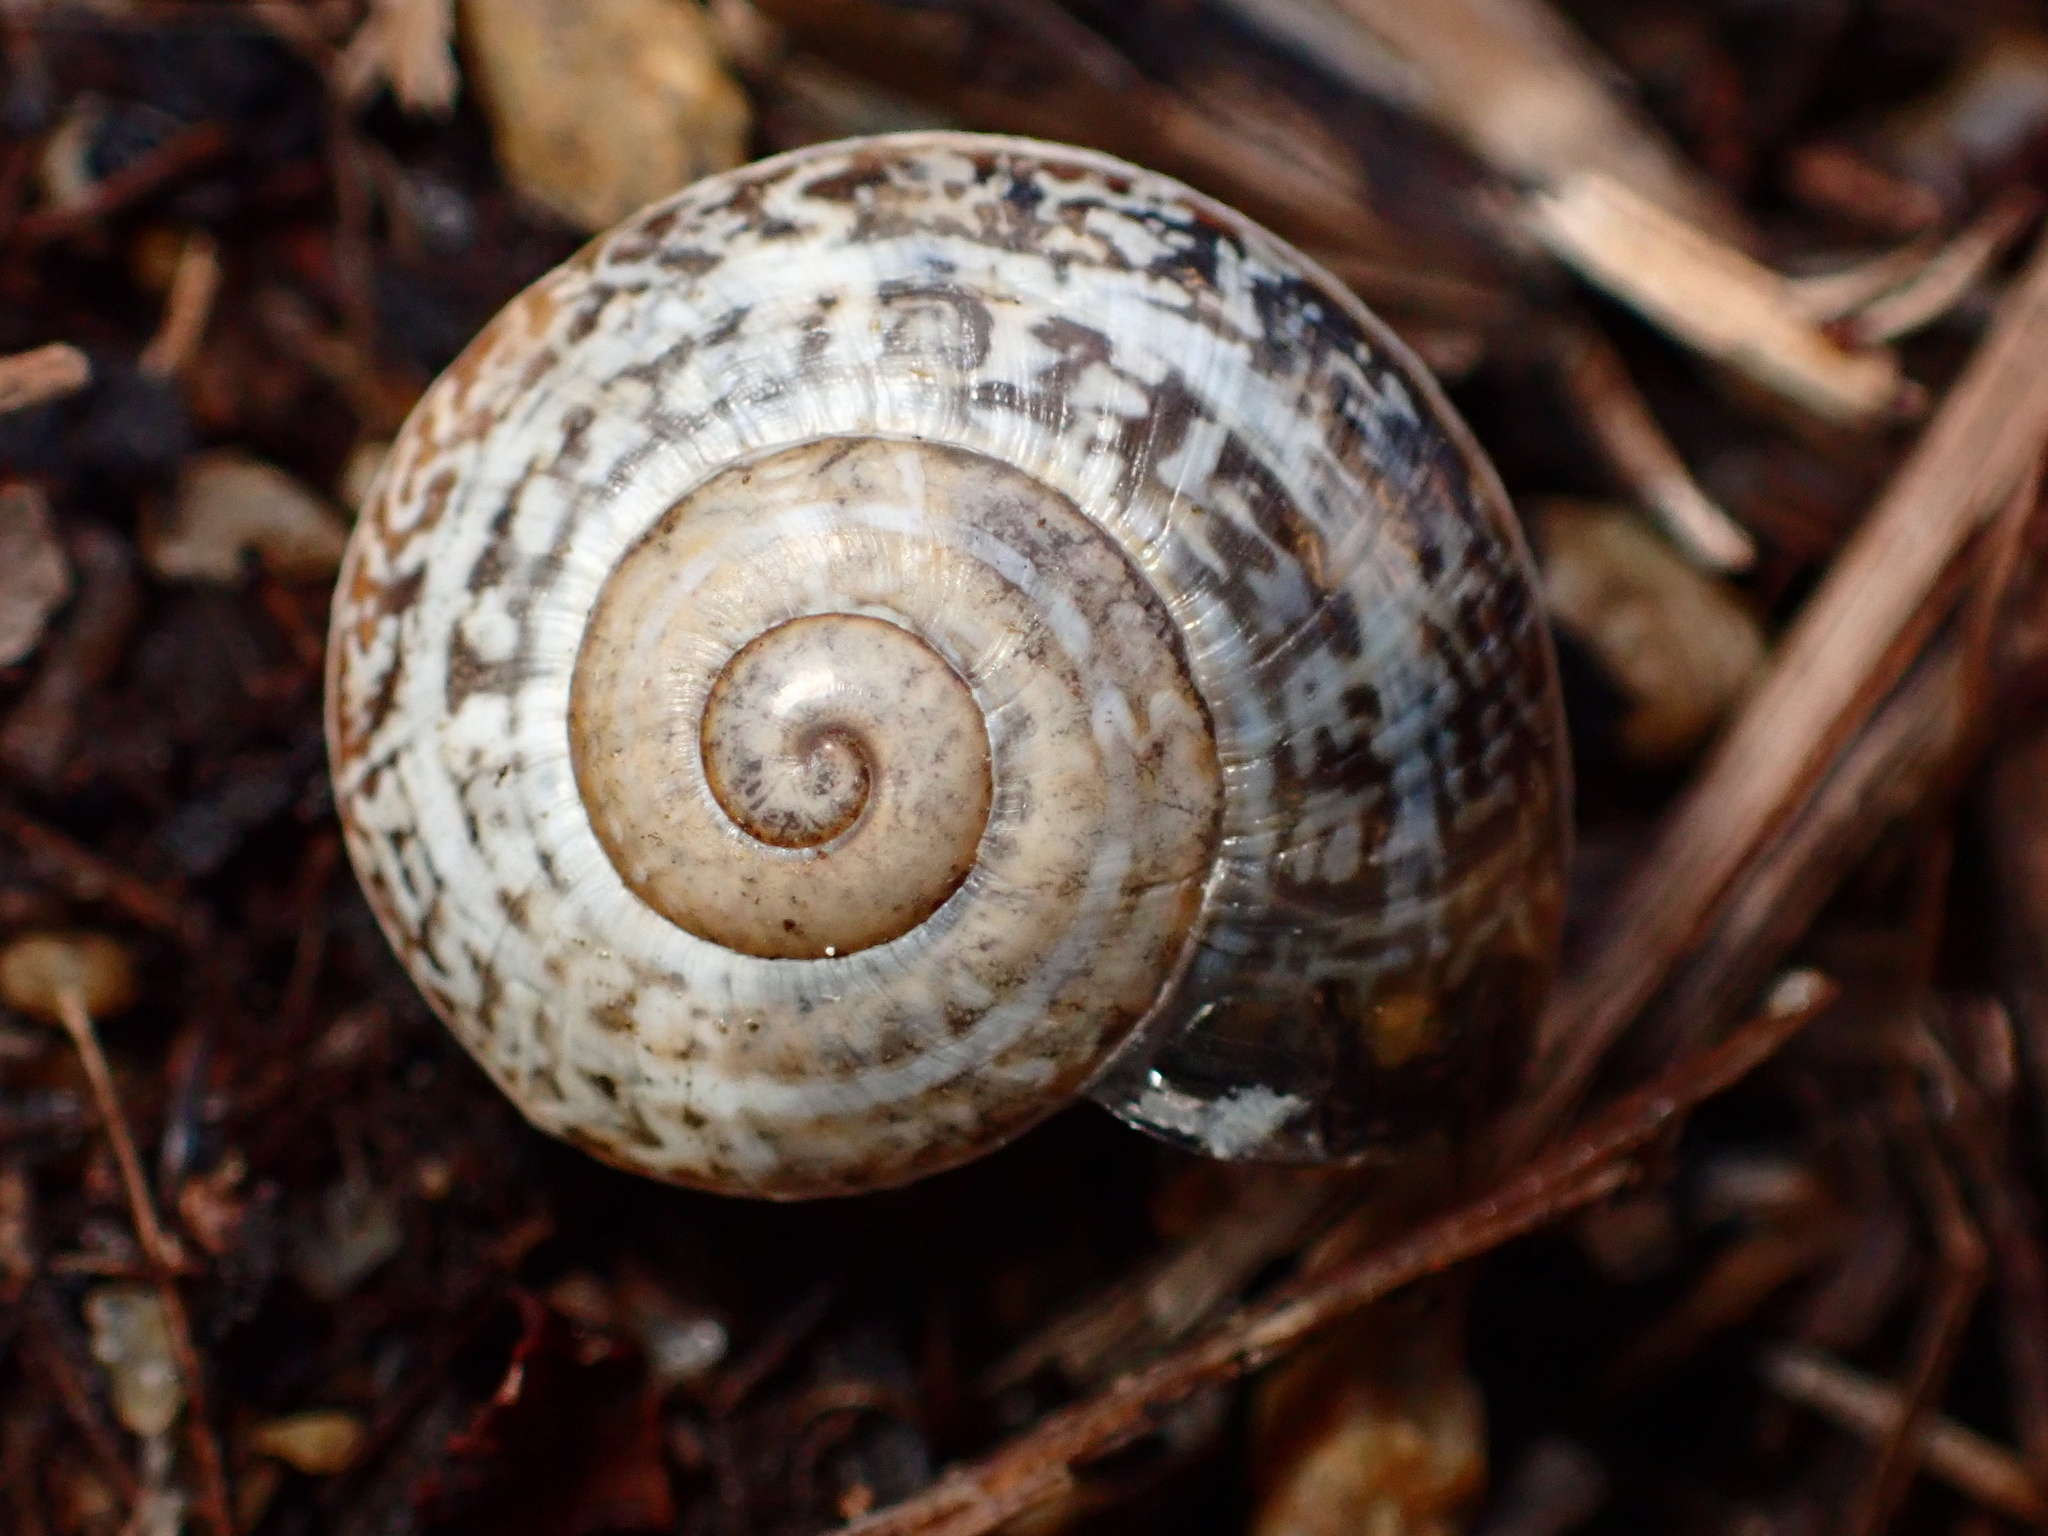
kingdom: Animalia
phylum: Mollusca
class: Gastropoda
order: Stylommatophora
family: Helicidae
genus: Otala
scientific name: Otala lactea
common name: Milk snail
